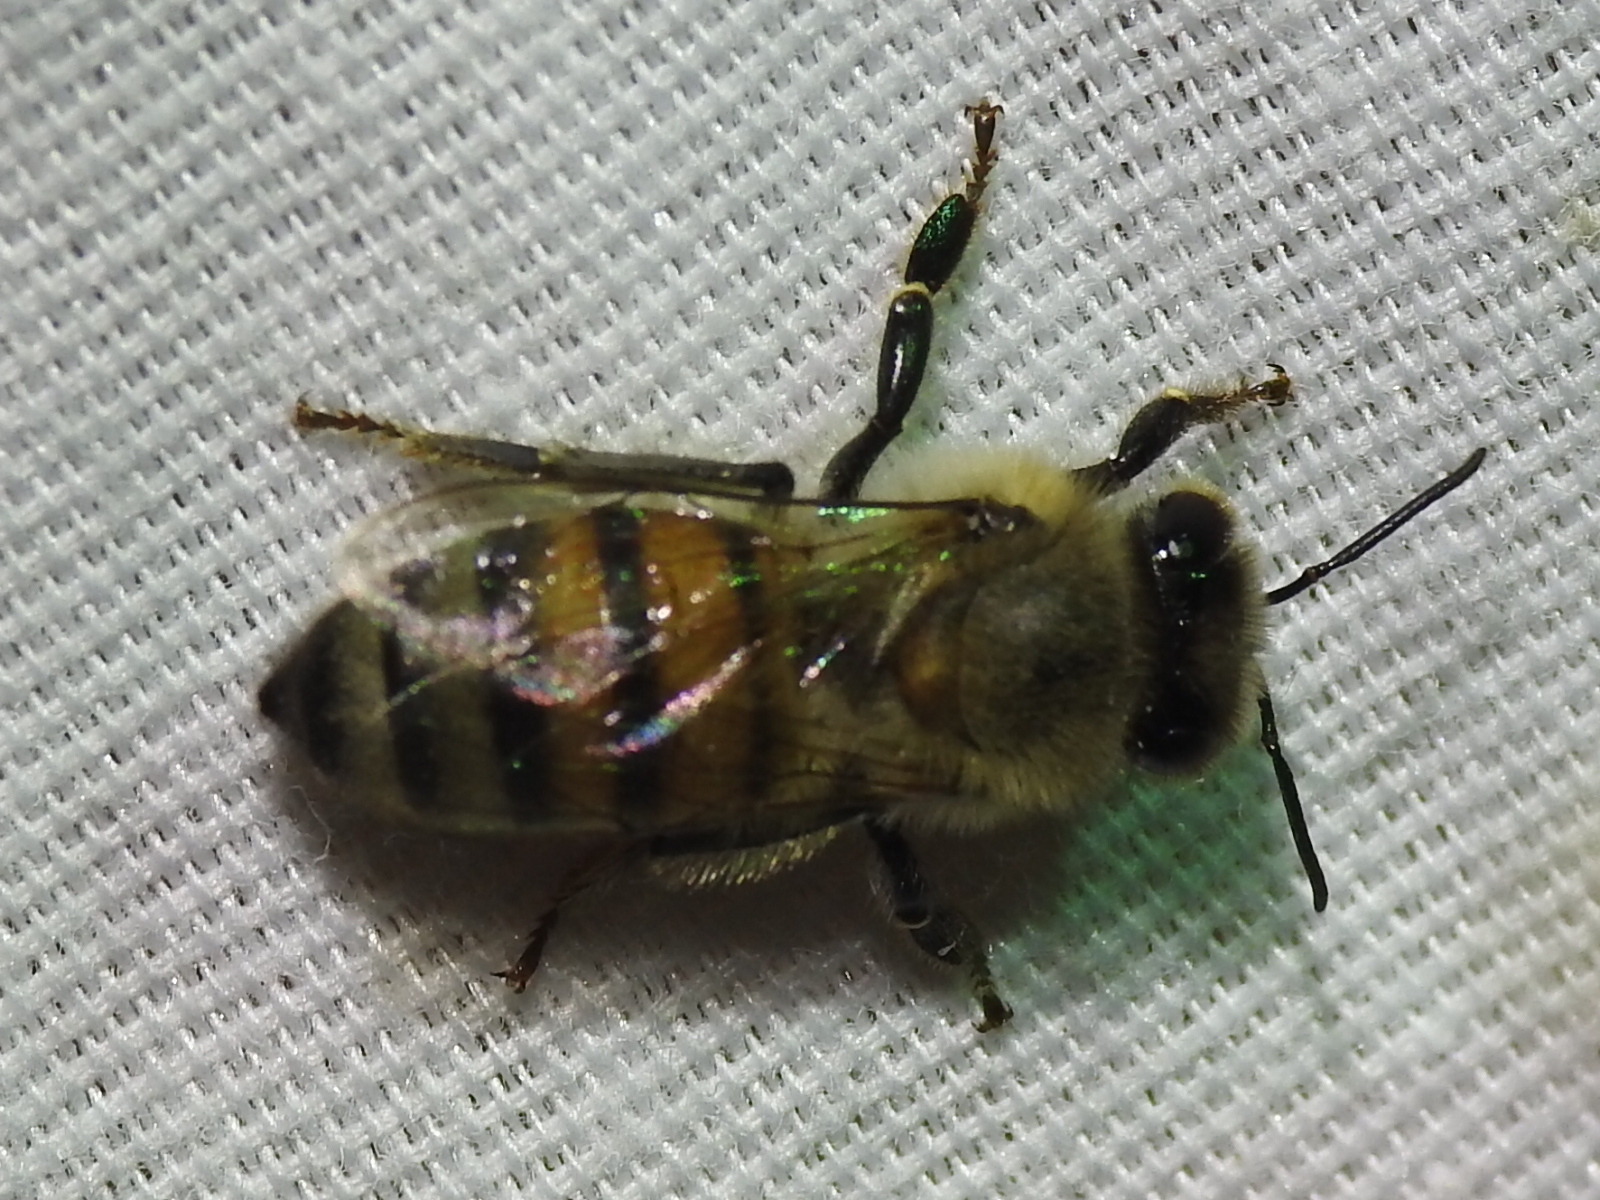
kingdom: Animalia
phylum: Arthropoda
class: Insecta
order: Hymenoptera
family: Apidae
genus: Apis
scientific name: Apis mellifera
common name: Honey bee
